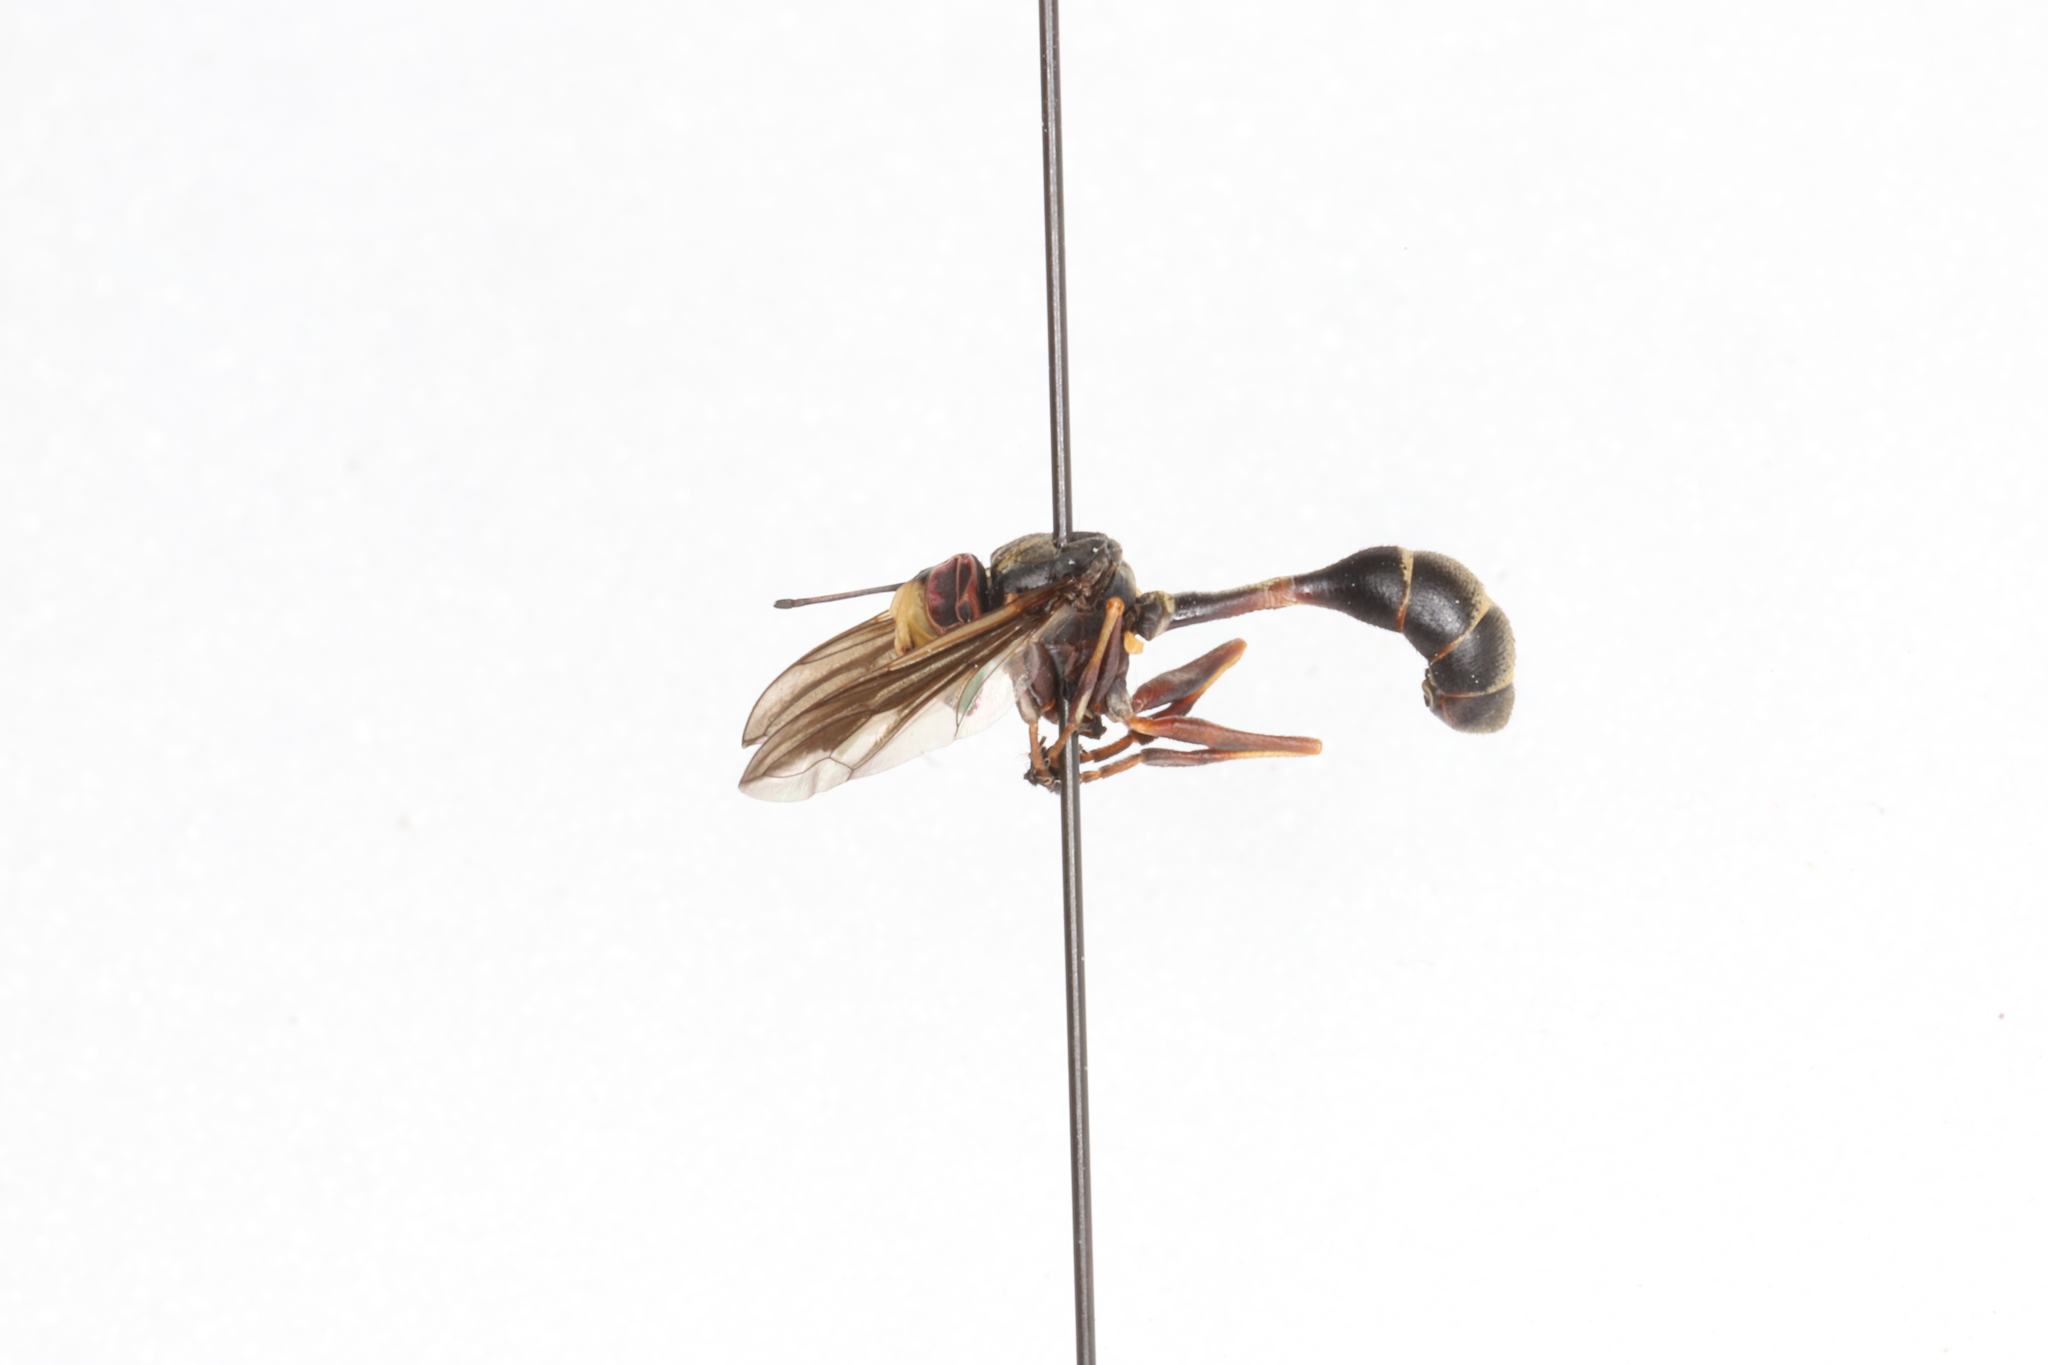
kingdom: Animalia
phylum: Arthropoda
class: Insecta
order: Diptera
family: Conopidae
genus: Physocephala
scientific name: Physocephala furcillata
